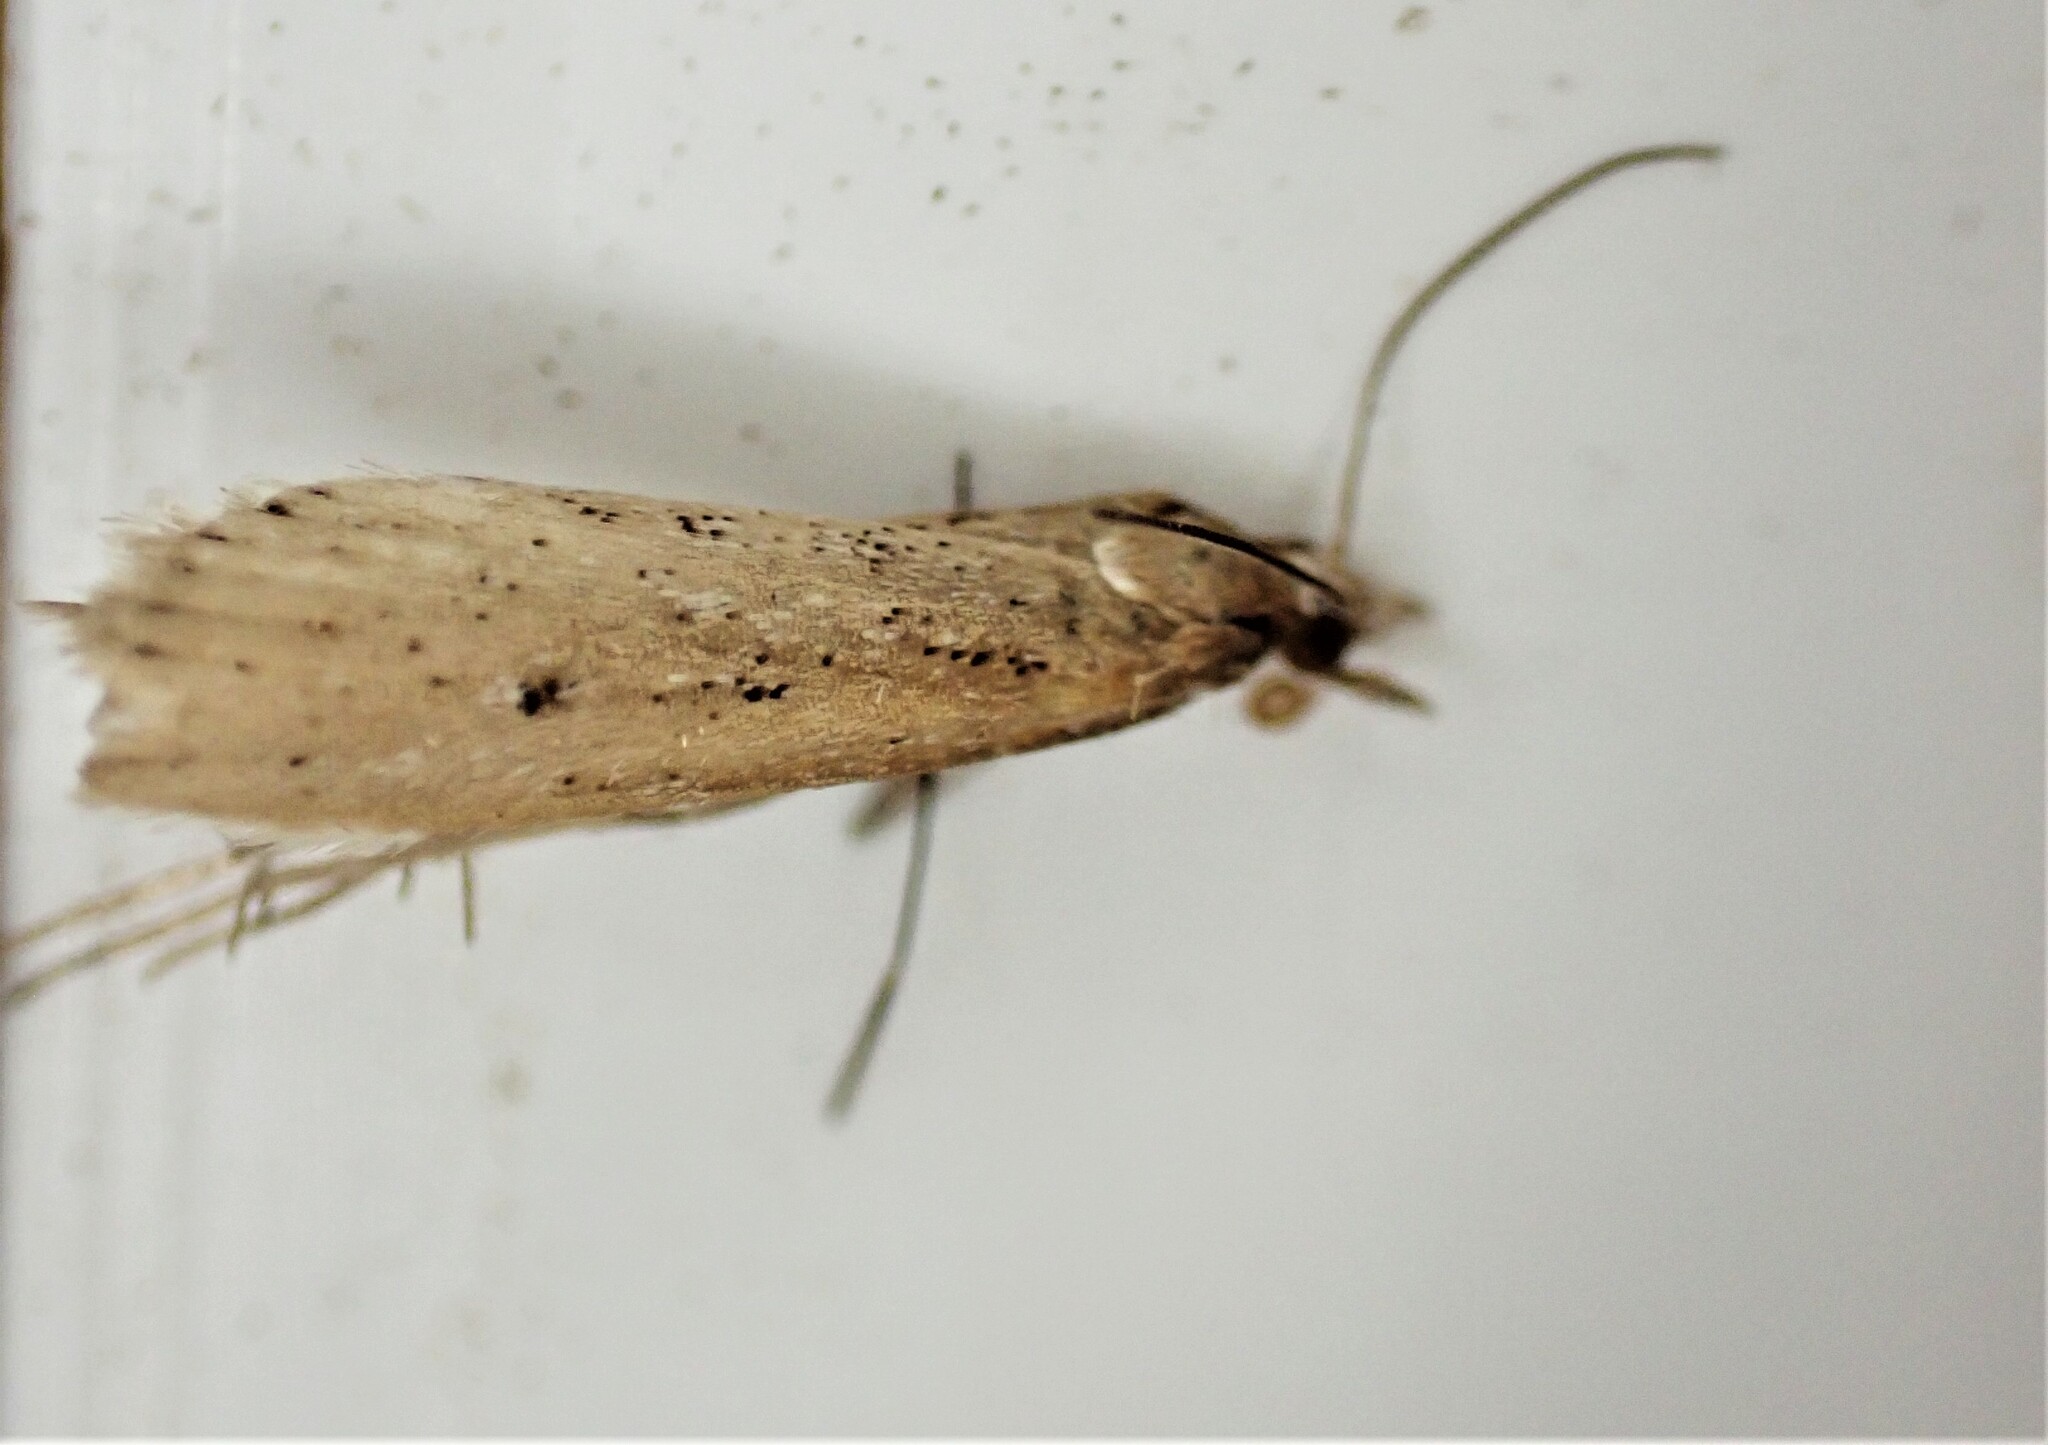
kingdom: Animalia
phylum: Arthropoda
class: Insecta
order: Lepidoptera
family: Crambidae
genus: Eudonia
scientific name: Eudonia sabulosella
